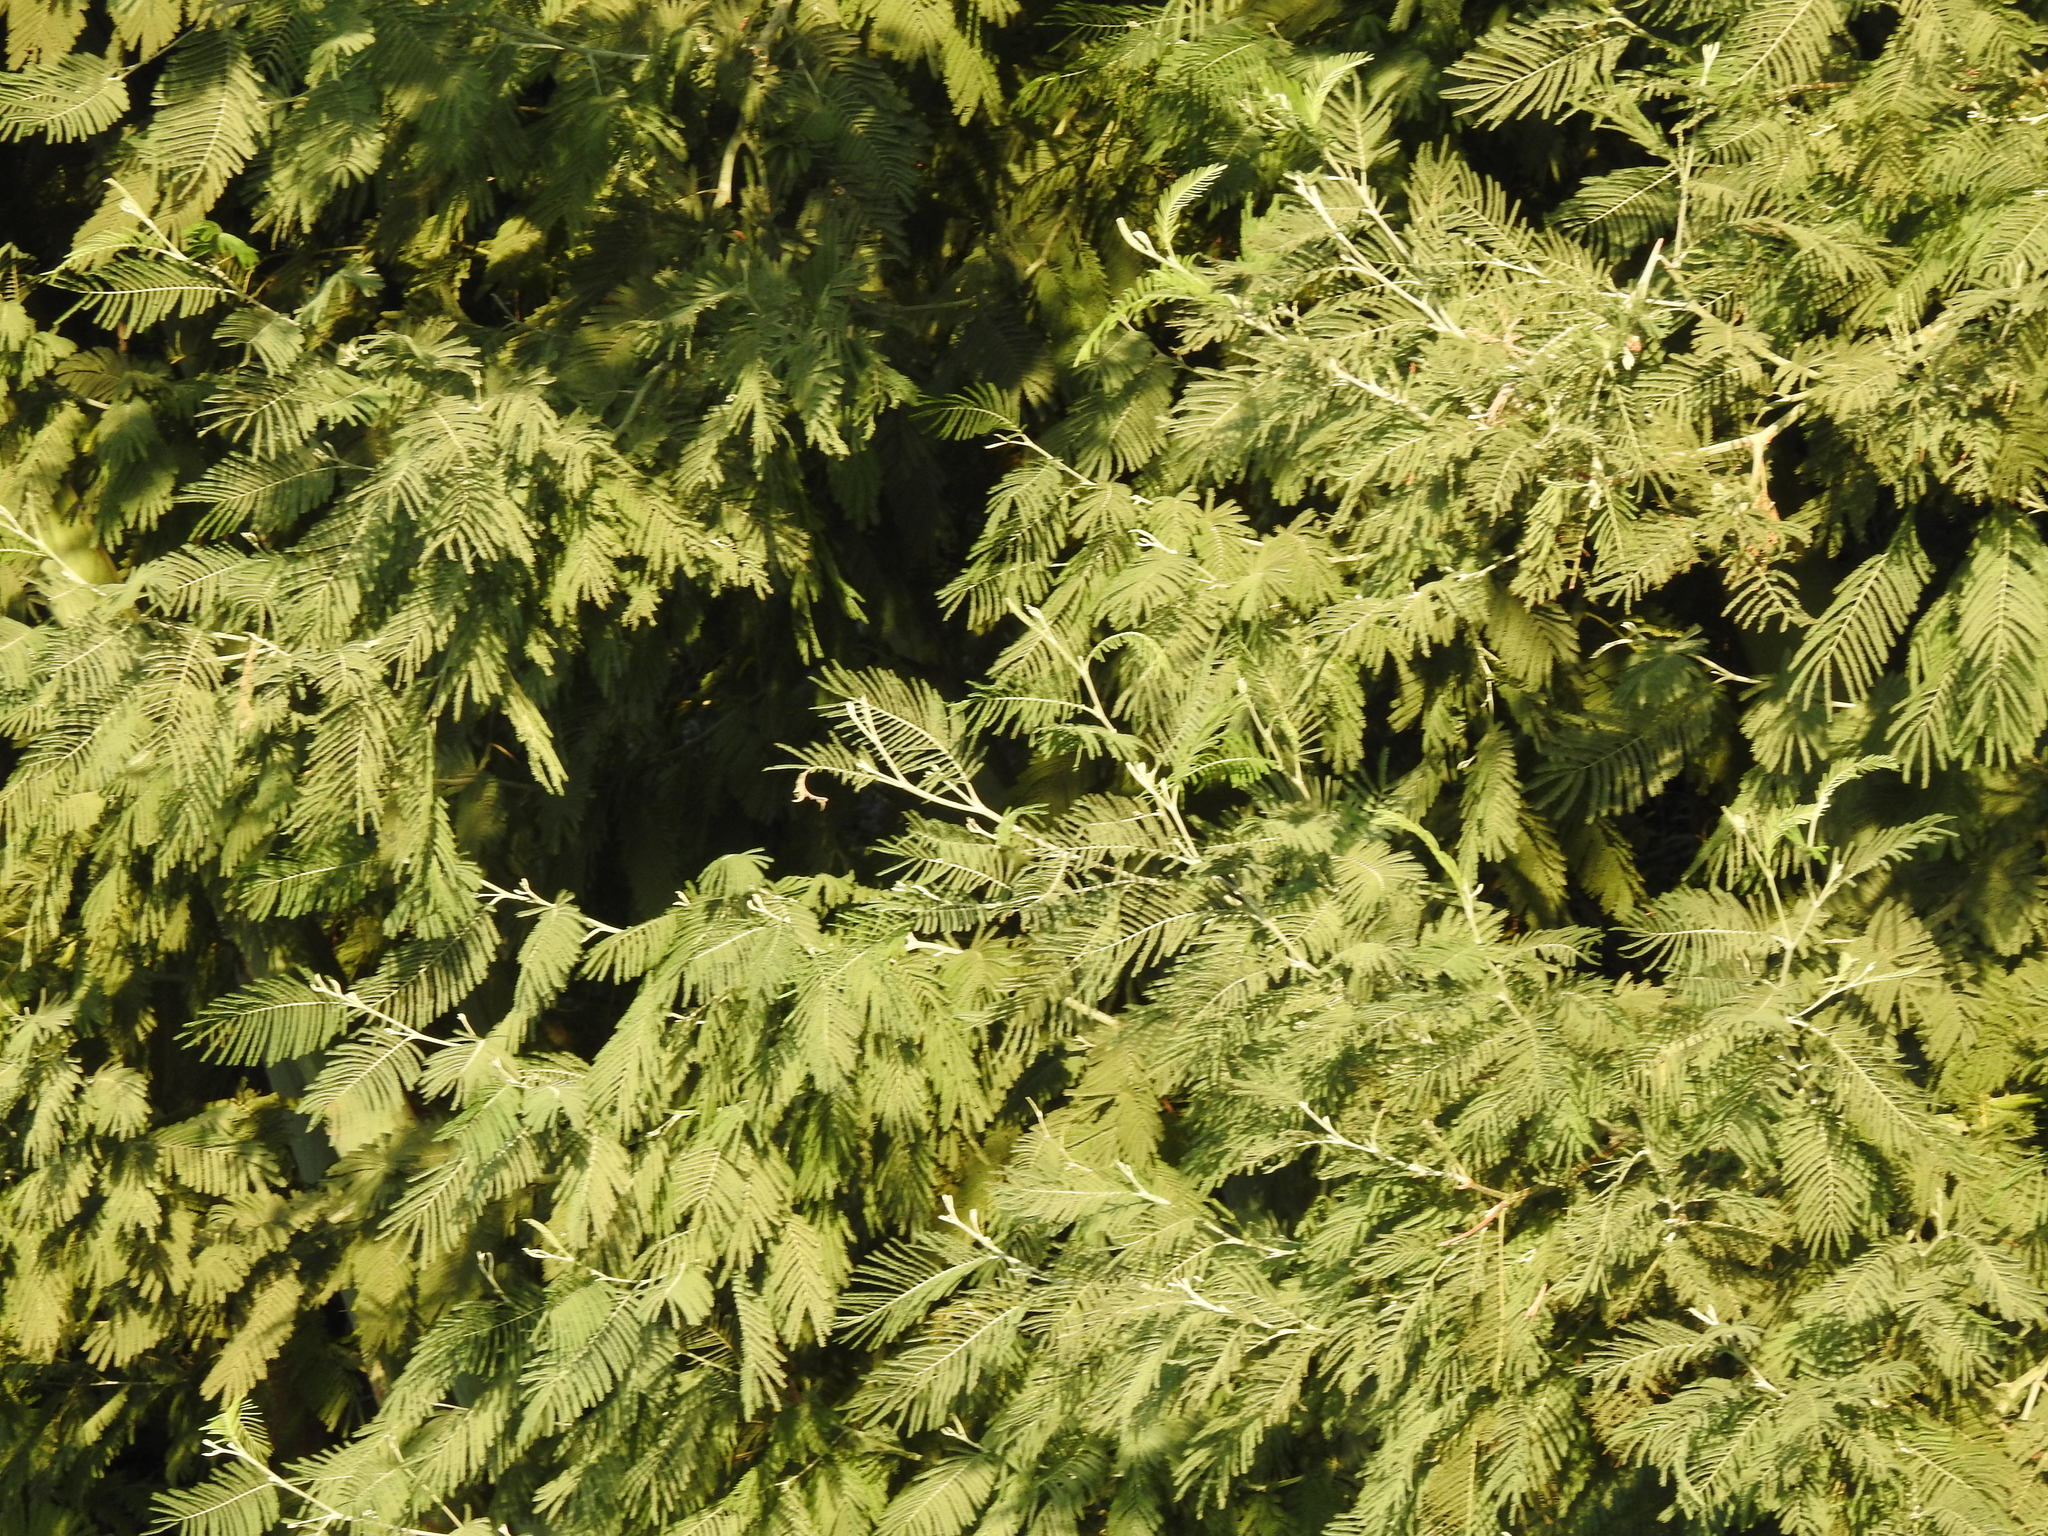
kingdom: Plantae
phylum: Tracheophyta
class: Magnoliopsida
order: Fabales
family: Fabaceae
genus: Acacia
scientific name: Acacia dealbata
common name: Silver wattle
